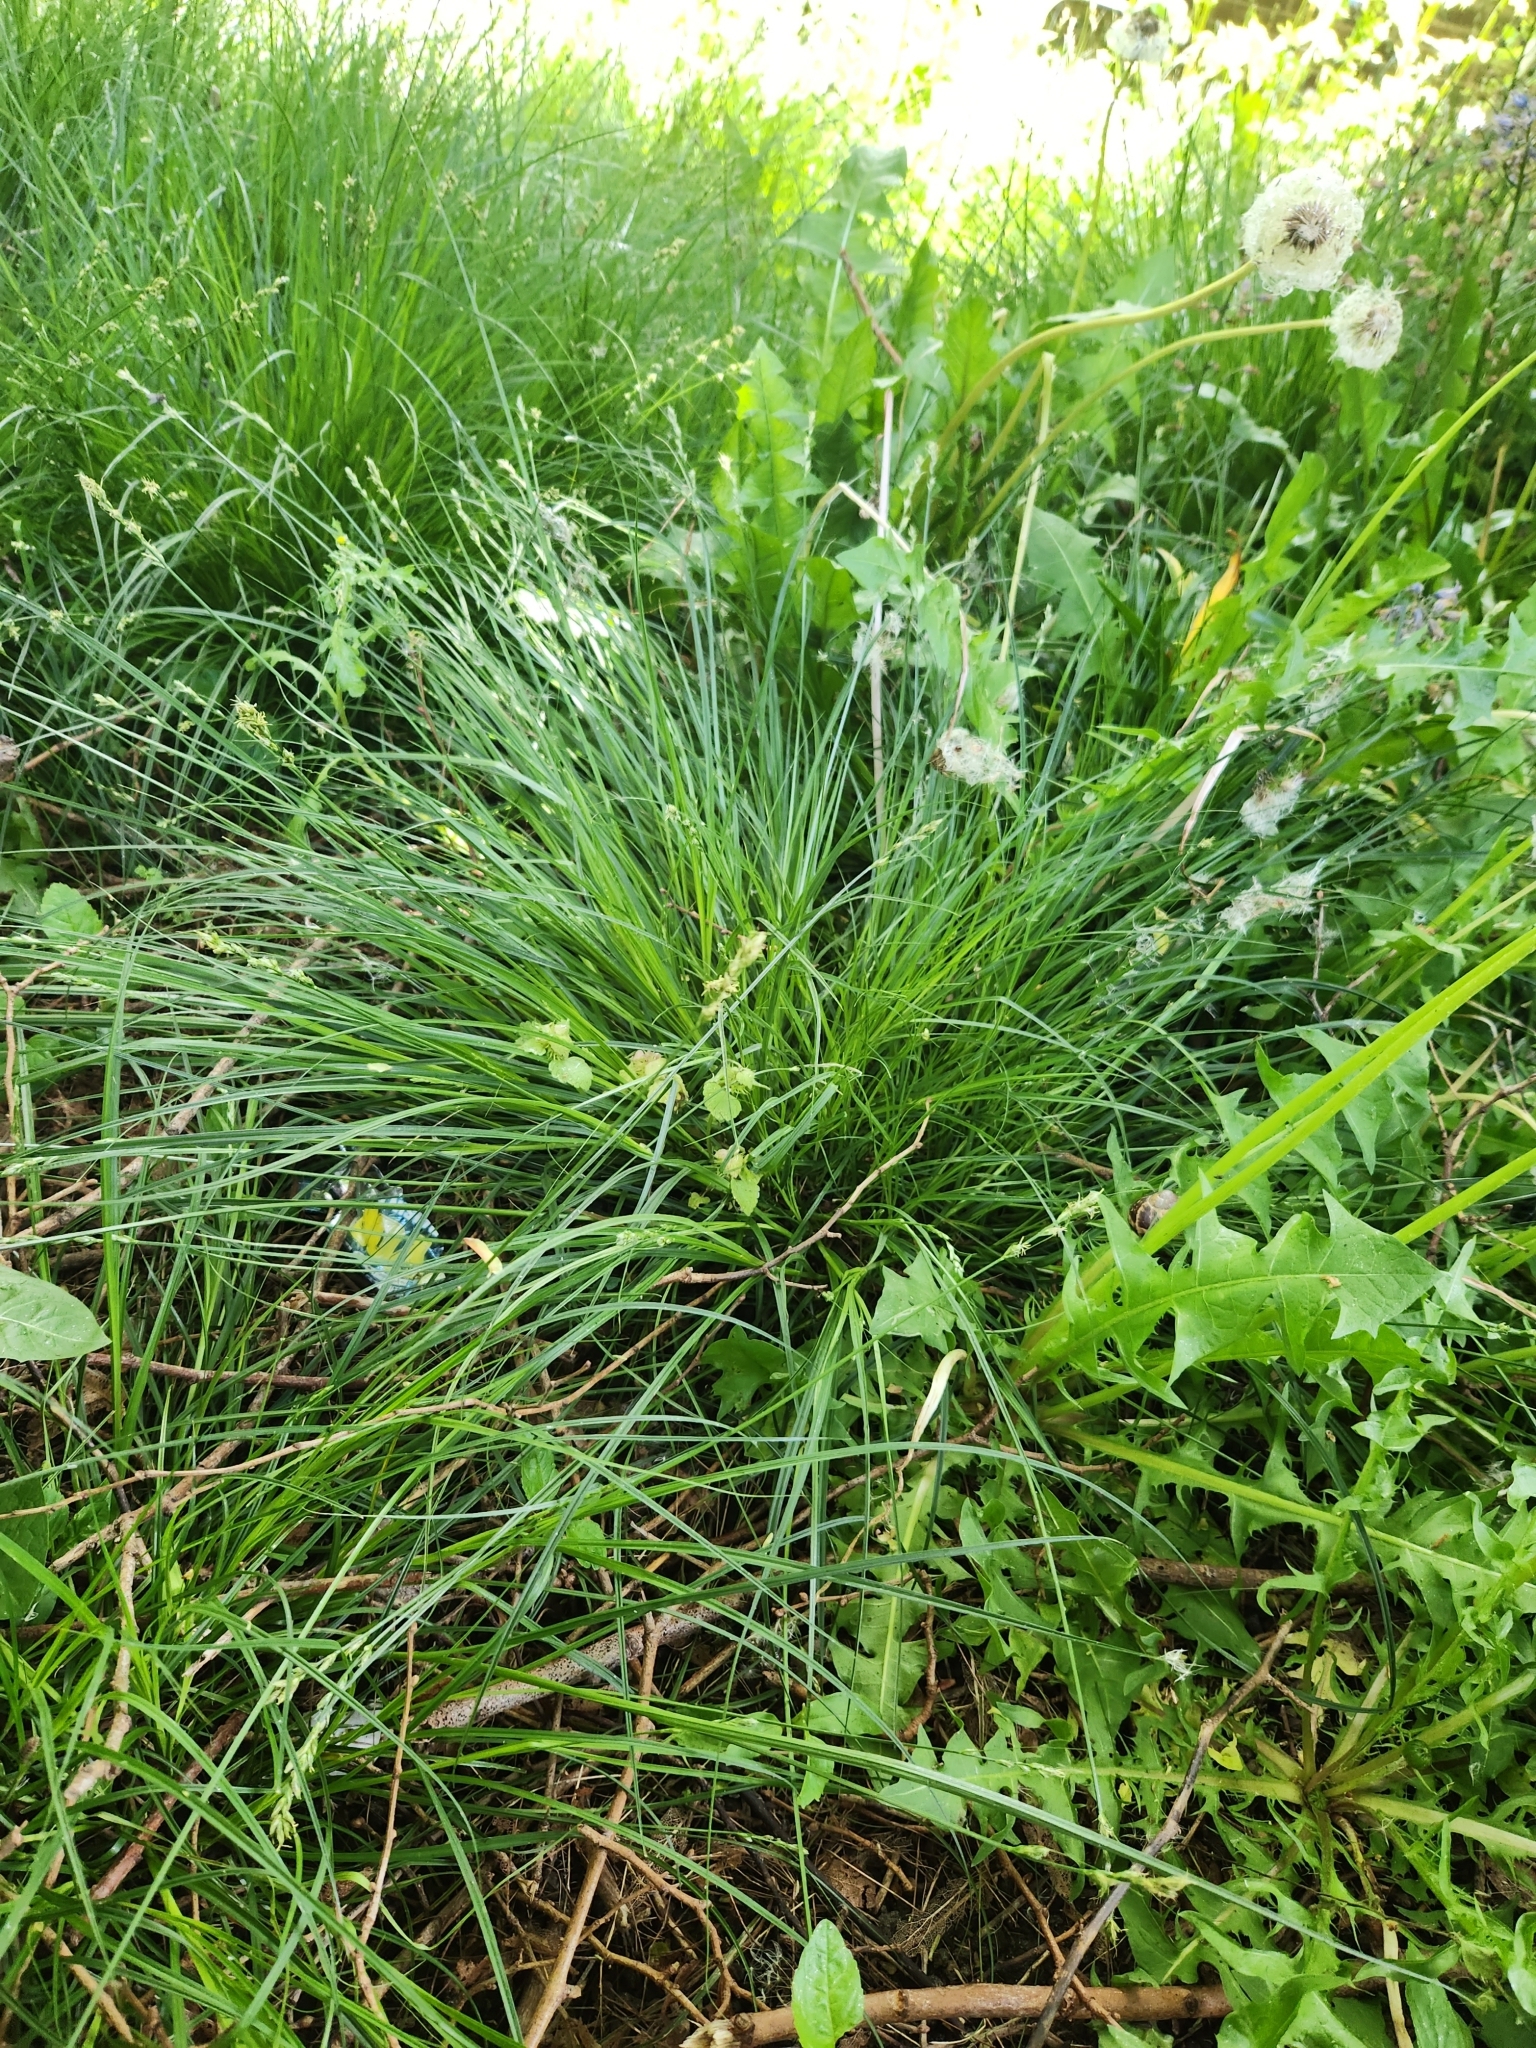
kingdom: Plantae
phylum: Tracheophyta
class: Liliopsida
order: Poales
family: Cyperaceae
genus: Carex
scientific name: Carex divulsa
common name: Grassland sedge
